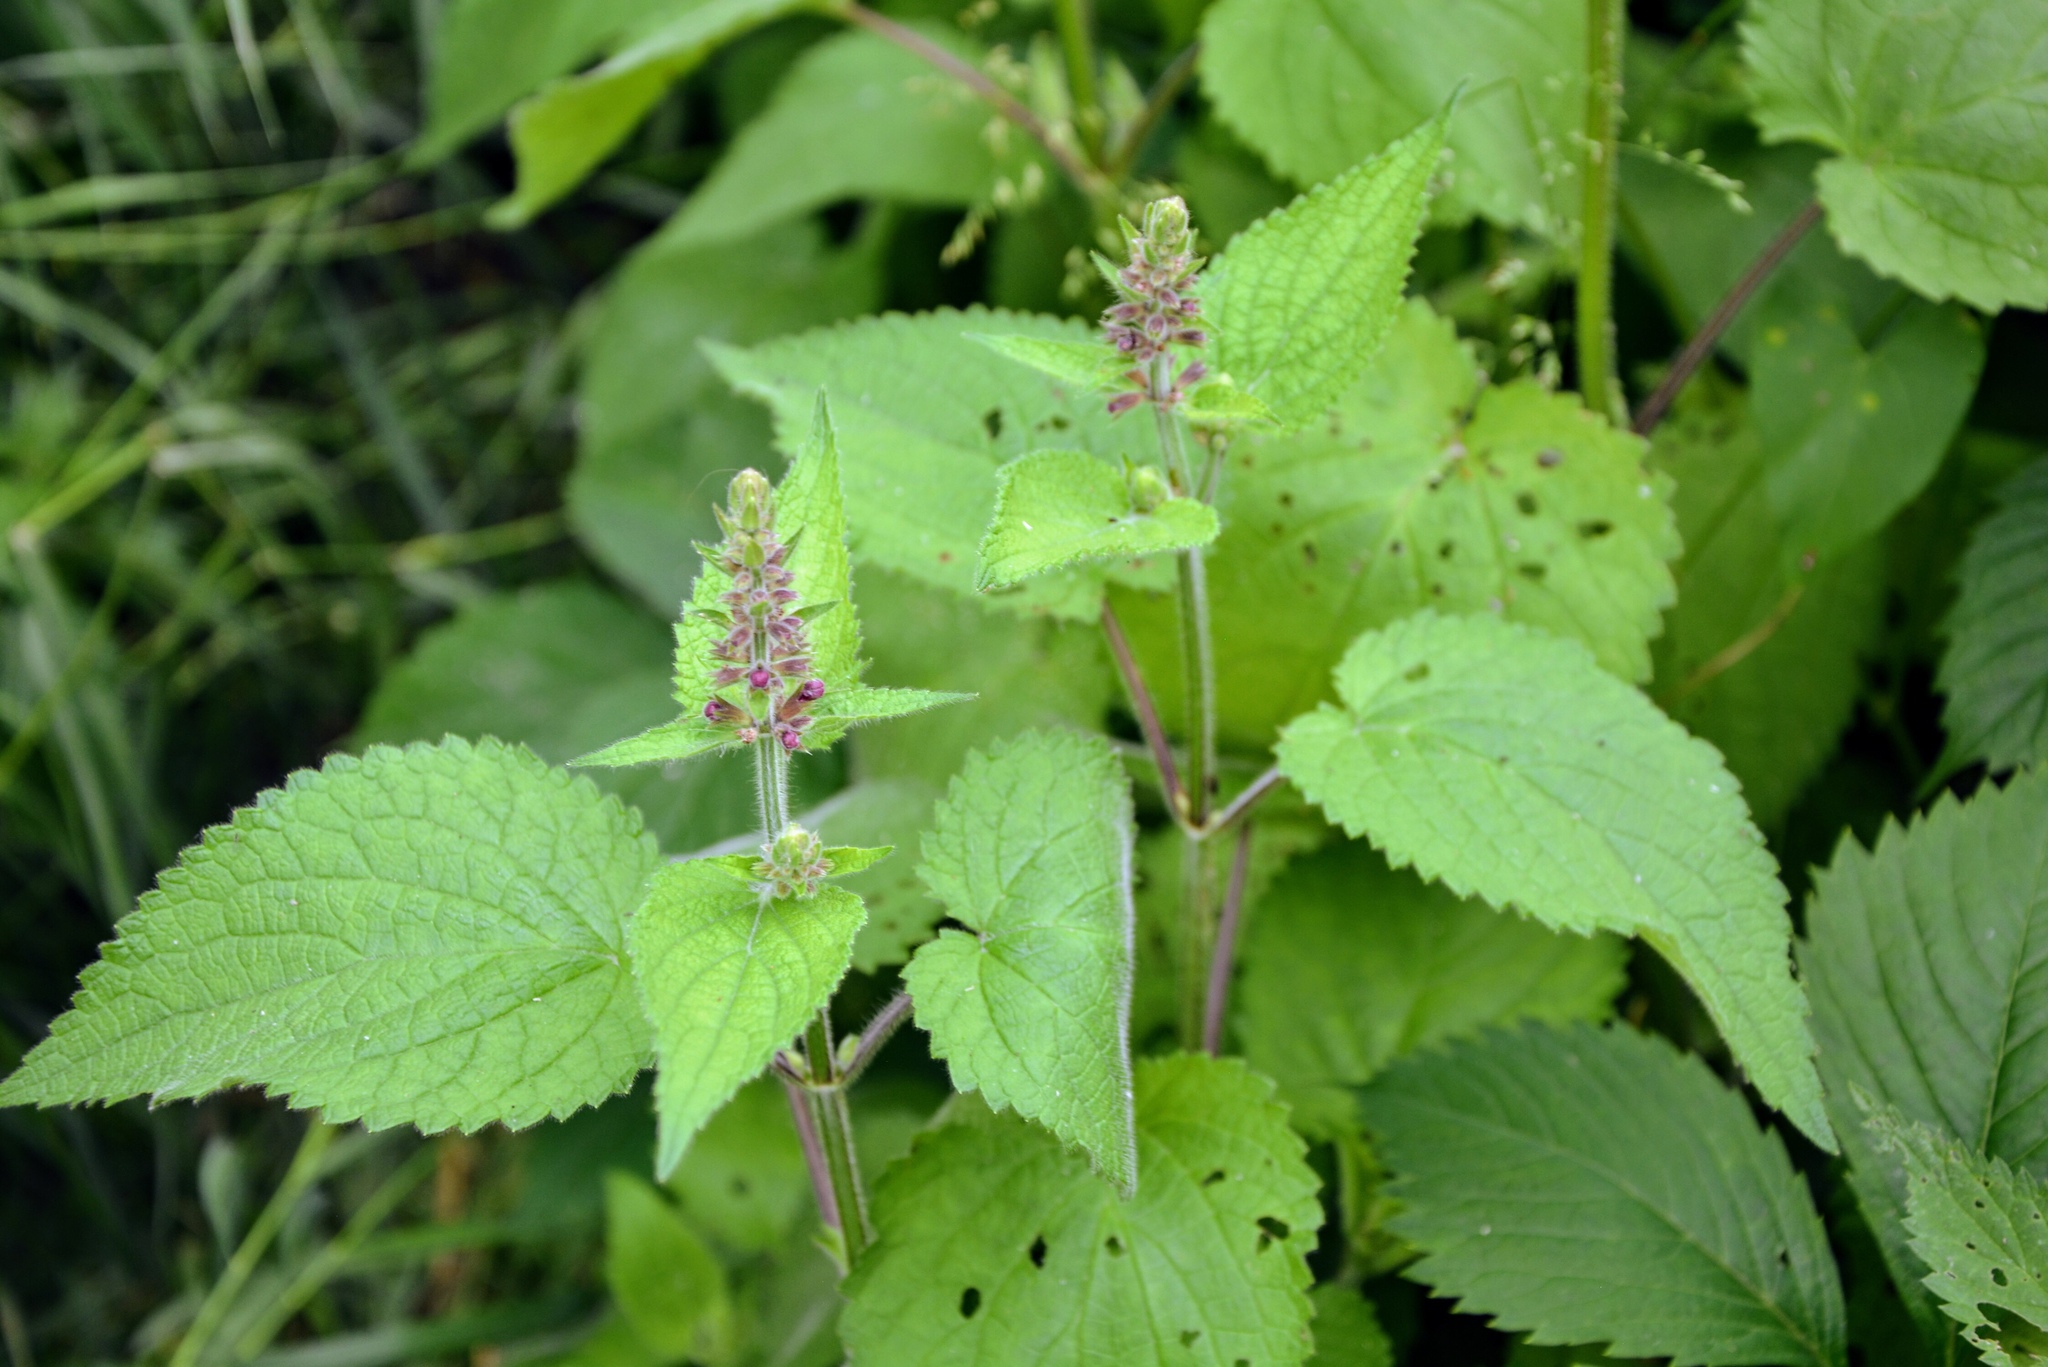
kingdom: Plantae
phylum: Tracheophyta
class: Magnoliopsida
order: Lamiales
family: Lamiaceae
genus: Stachys
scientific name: Stachys sylvatica
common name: Hedge woundwort
